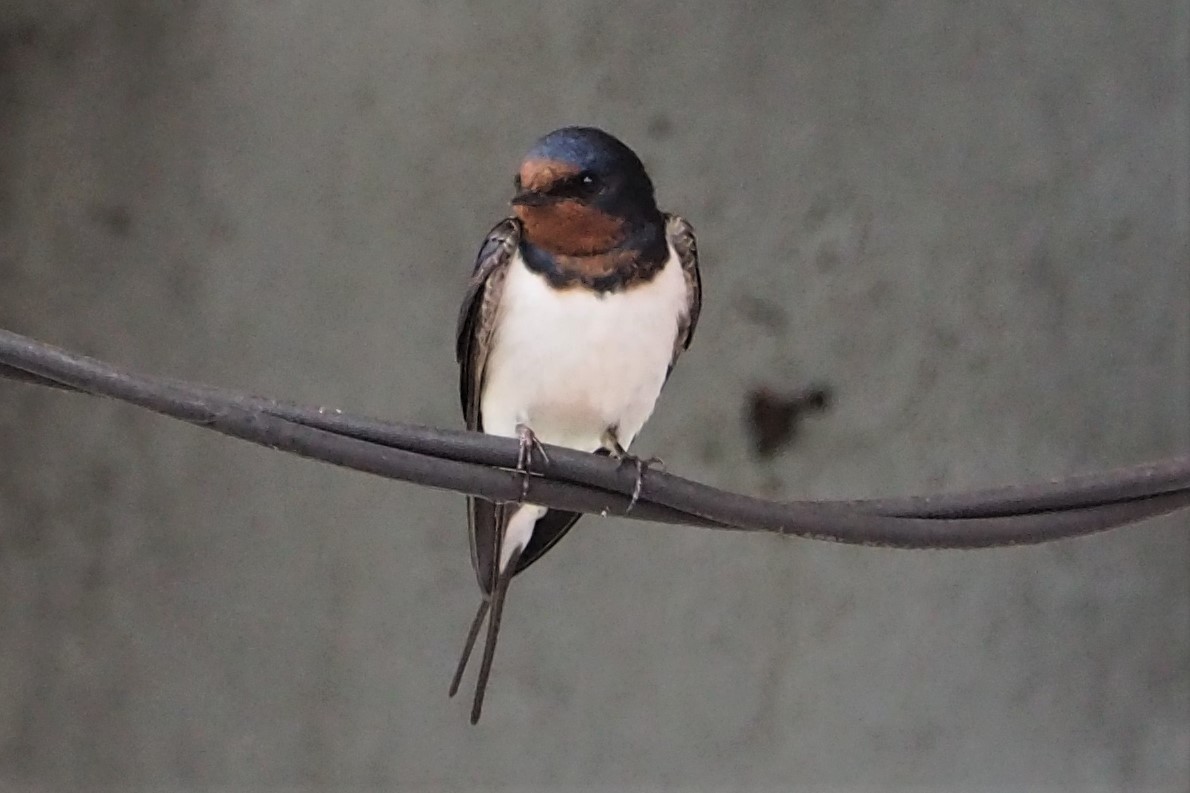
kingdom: Animalia
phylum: Chordata
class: Aves
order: Passeriformes
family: Hirundinidae
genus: Hirundo
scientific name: Hirundo rustica
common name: Barn swallow
